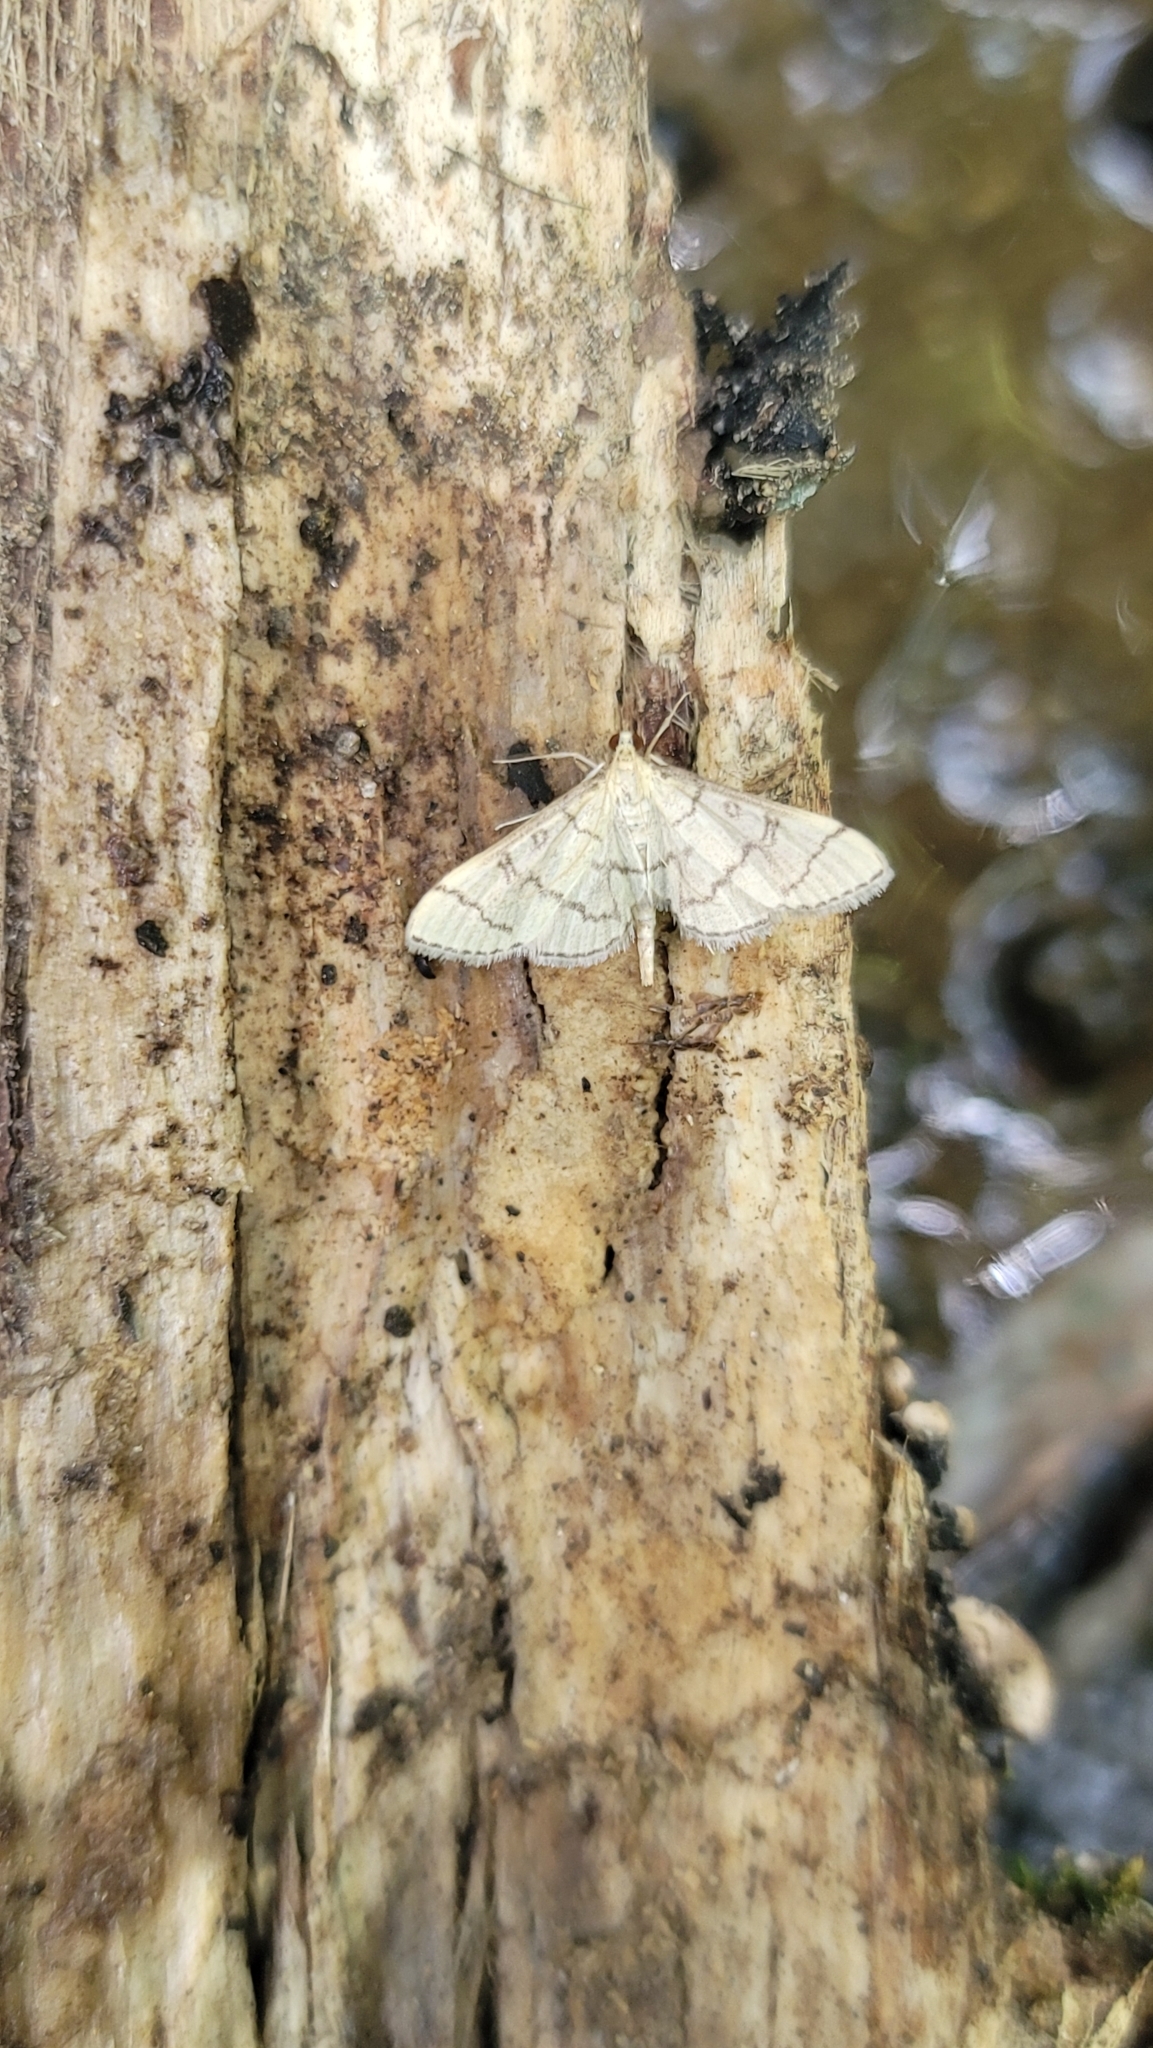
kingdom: Animalia
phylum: Arthropoda
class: Insecta
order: Lepidoptera
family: Crambidae
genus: Lamprosema
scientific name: Lamprosema Blepharomastix ranalis
